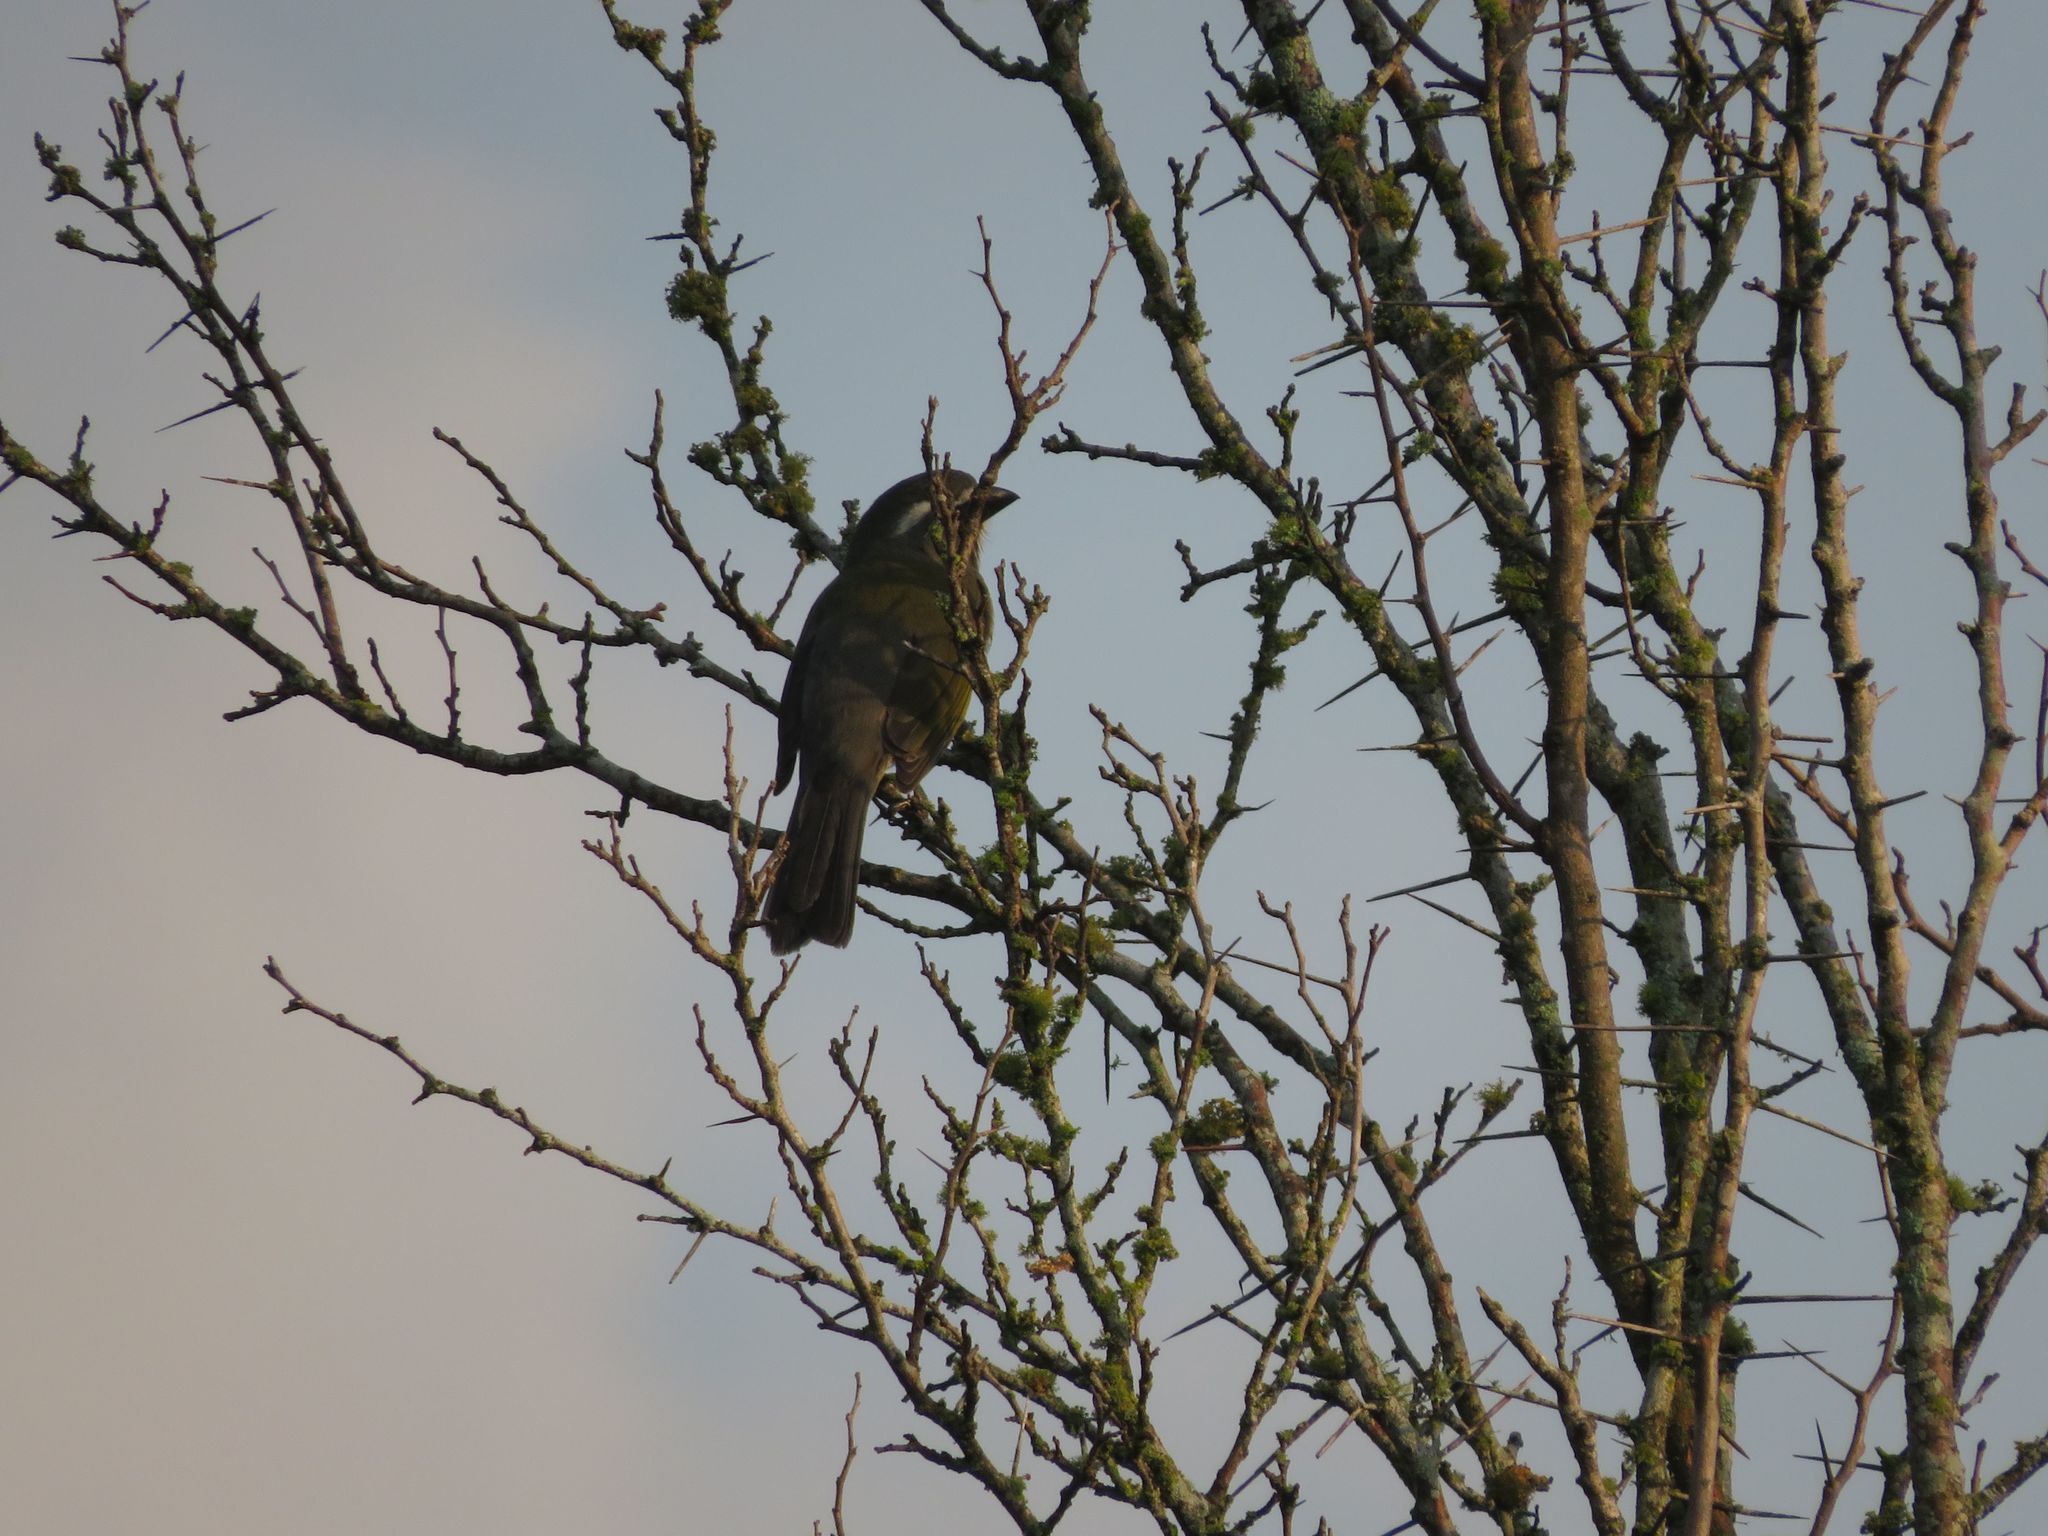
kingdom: Animalia
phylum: Chordata
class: Aves
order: Passeriformes
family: Thraupidae
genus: Saltator
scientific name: Saltator similis
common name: Green-winged saltator
